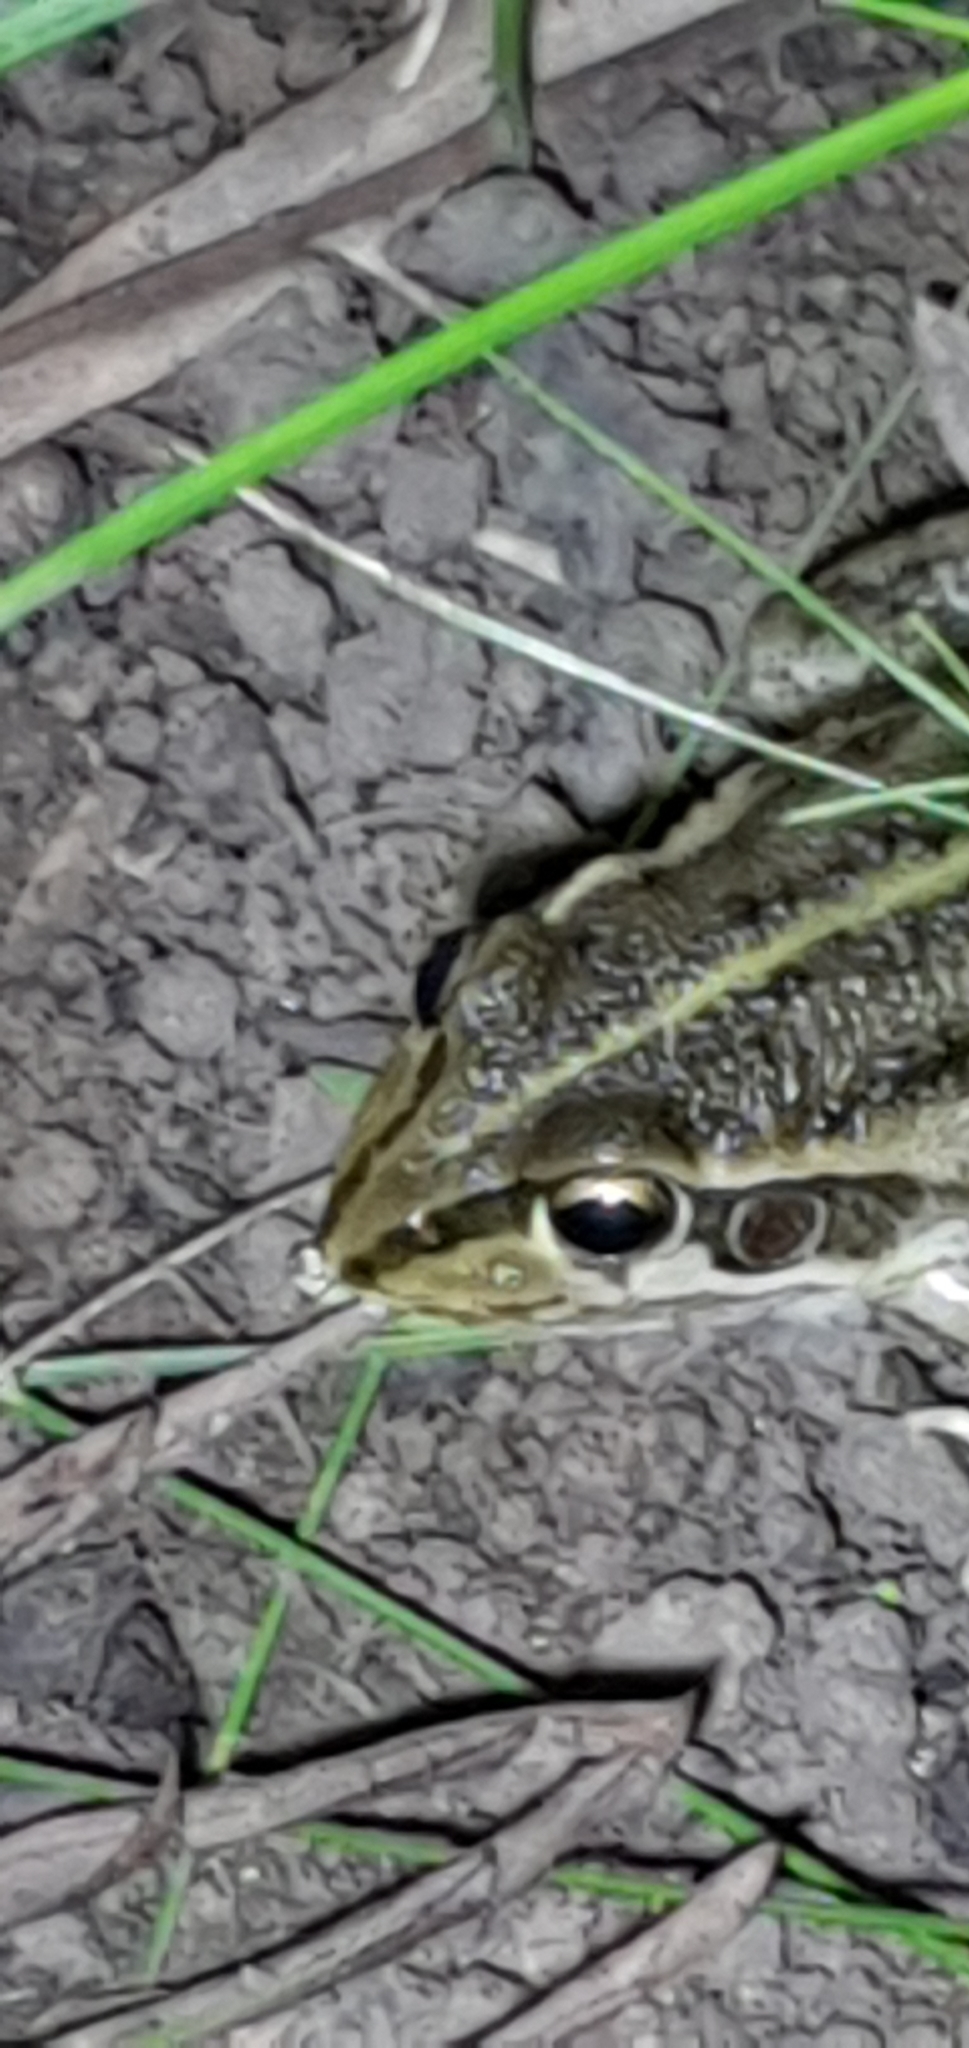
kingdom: Animalia
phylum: Chordata
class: Amphibia
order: Anura
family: Pelodryadidae
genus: Ranoidea
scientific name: Ranoidea alboguttata
